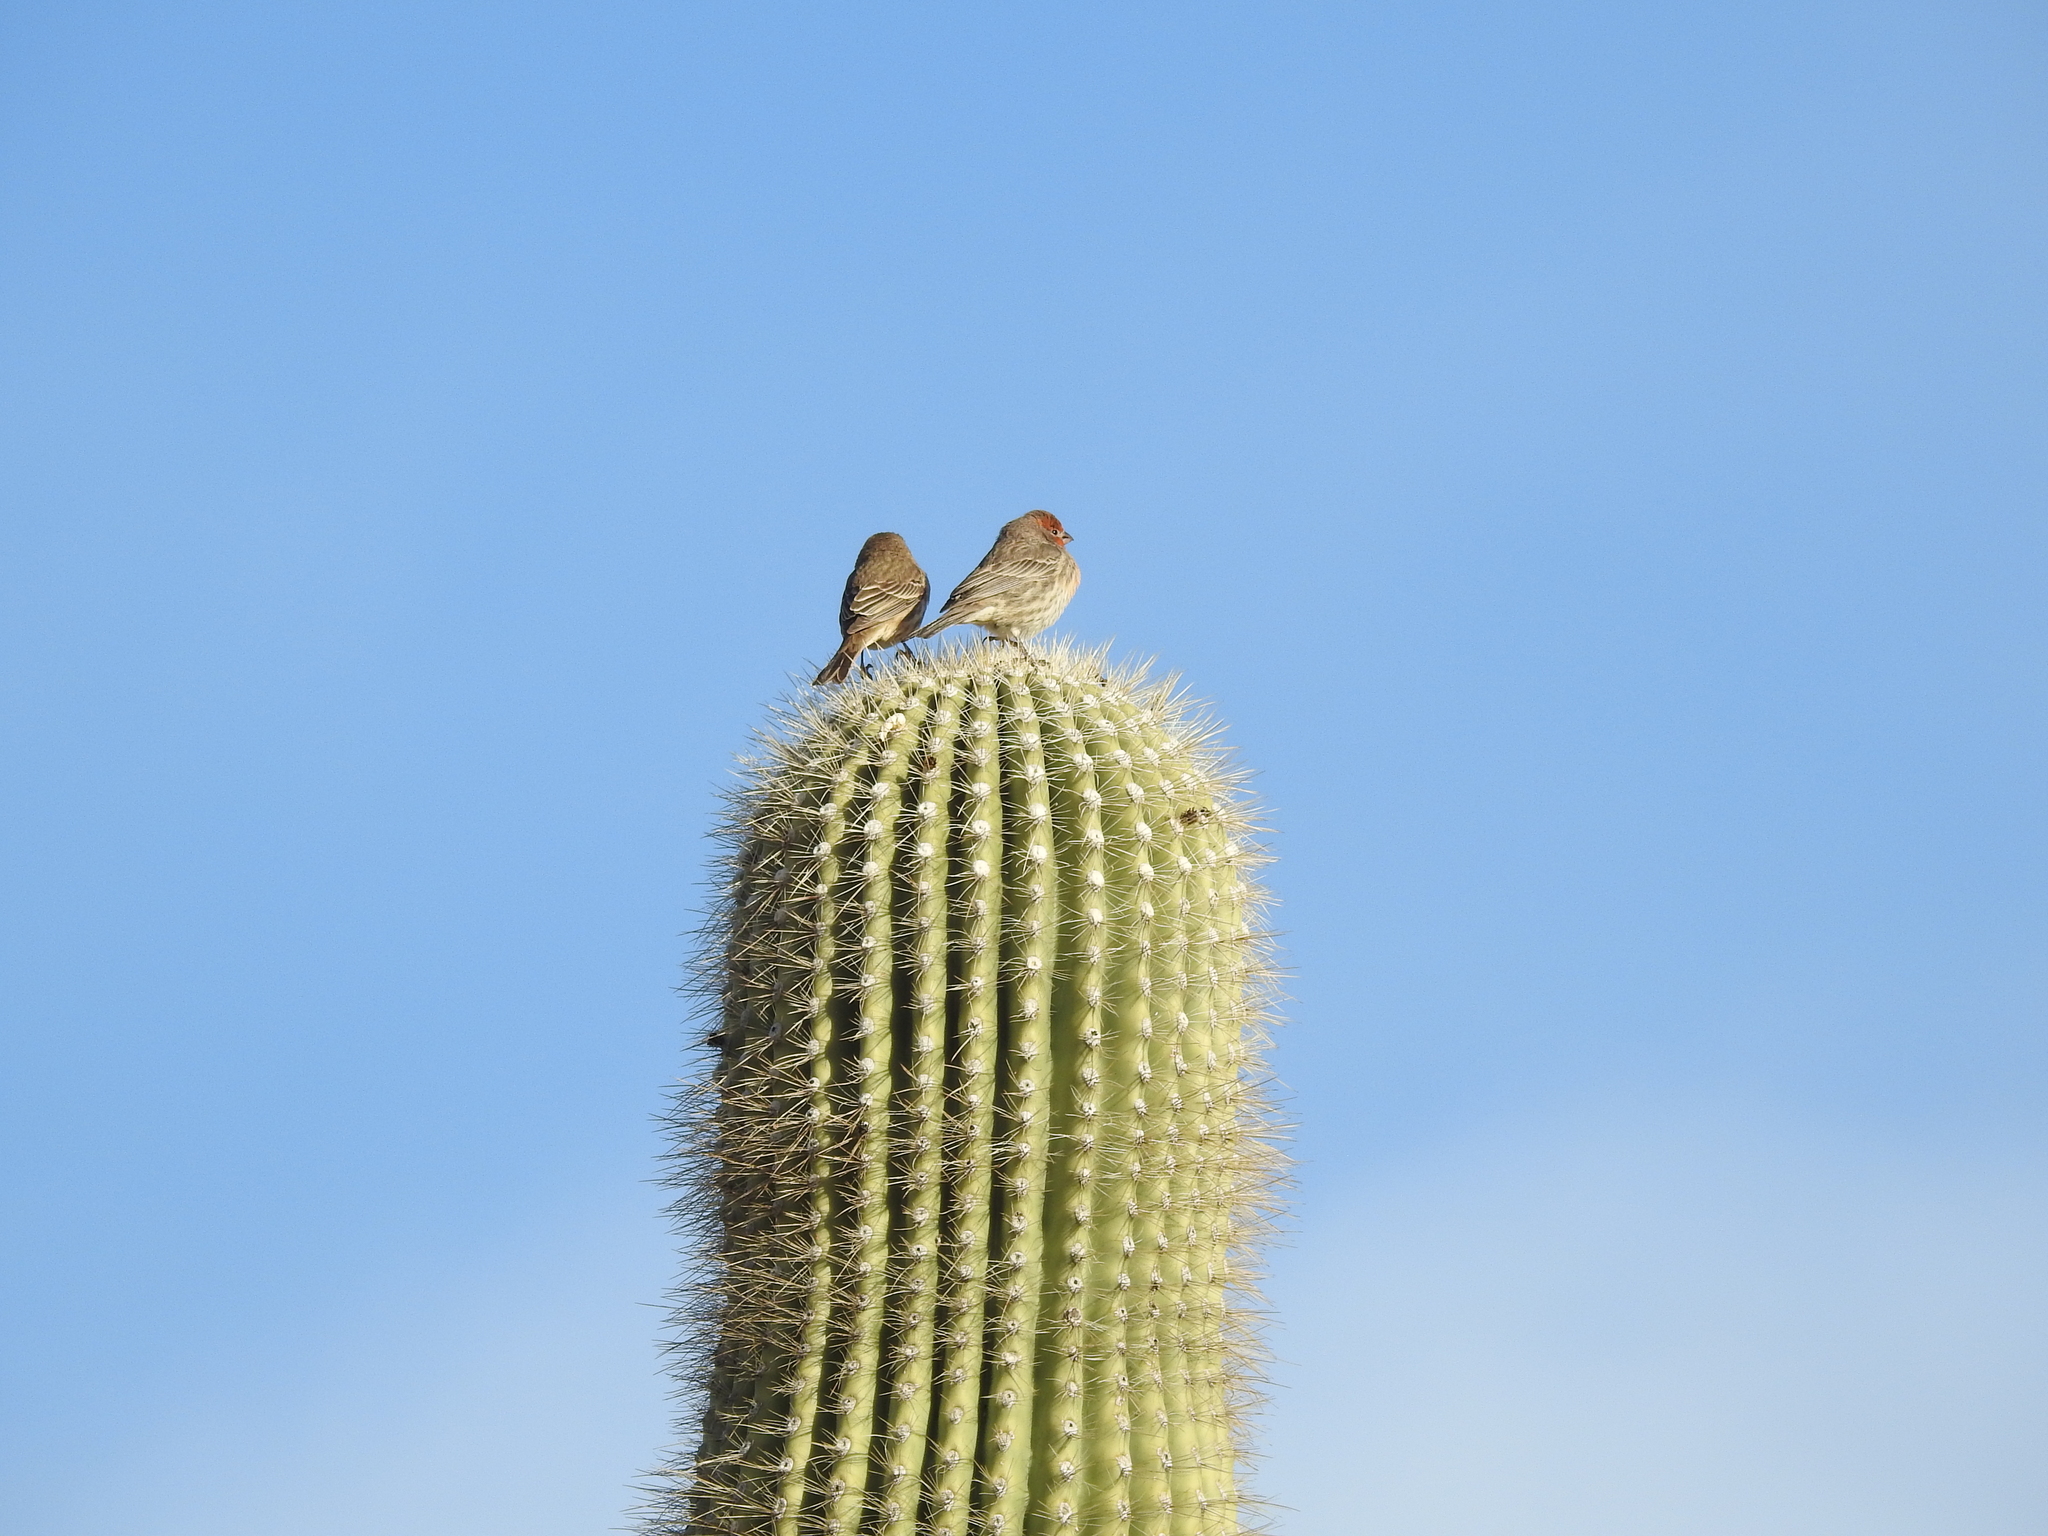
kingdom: Animalia
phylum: Chordata
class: Aves
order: Passeriformes
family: Fringillidae
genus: Haemorhous
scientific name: Haemorhous mexicanus
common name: House finch
